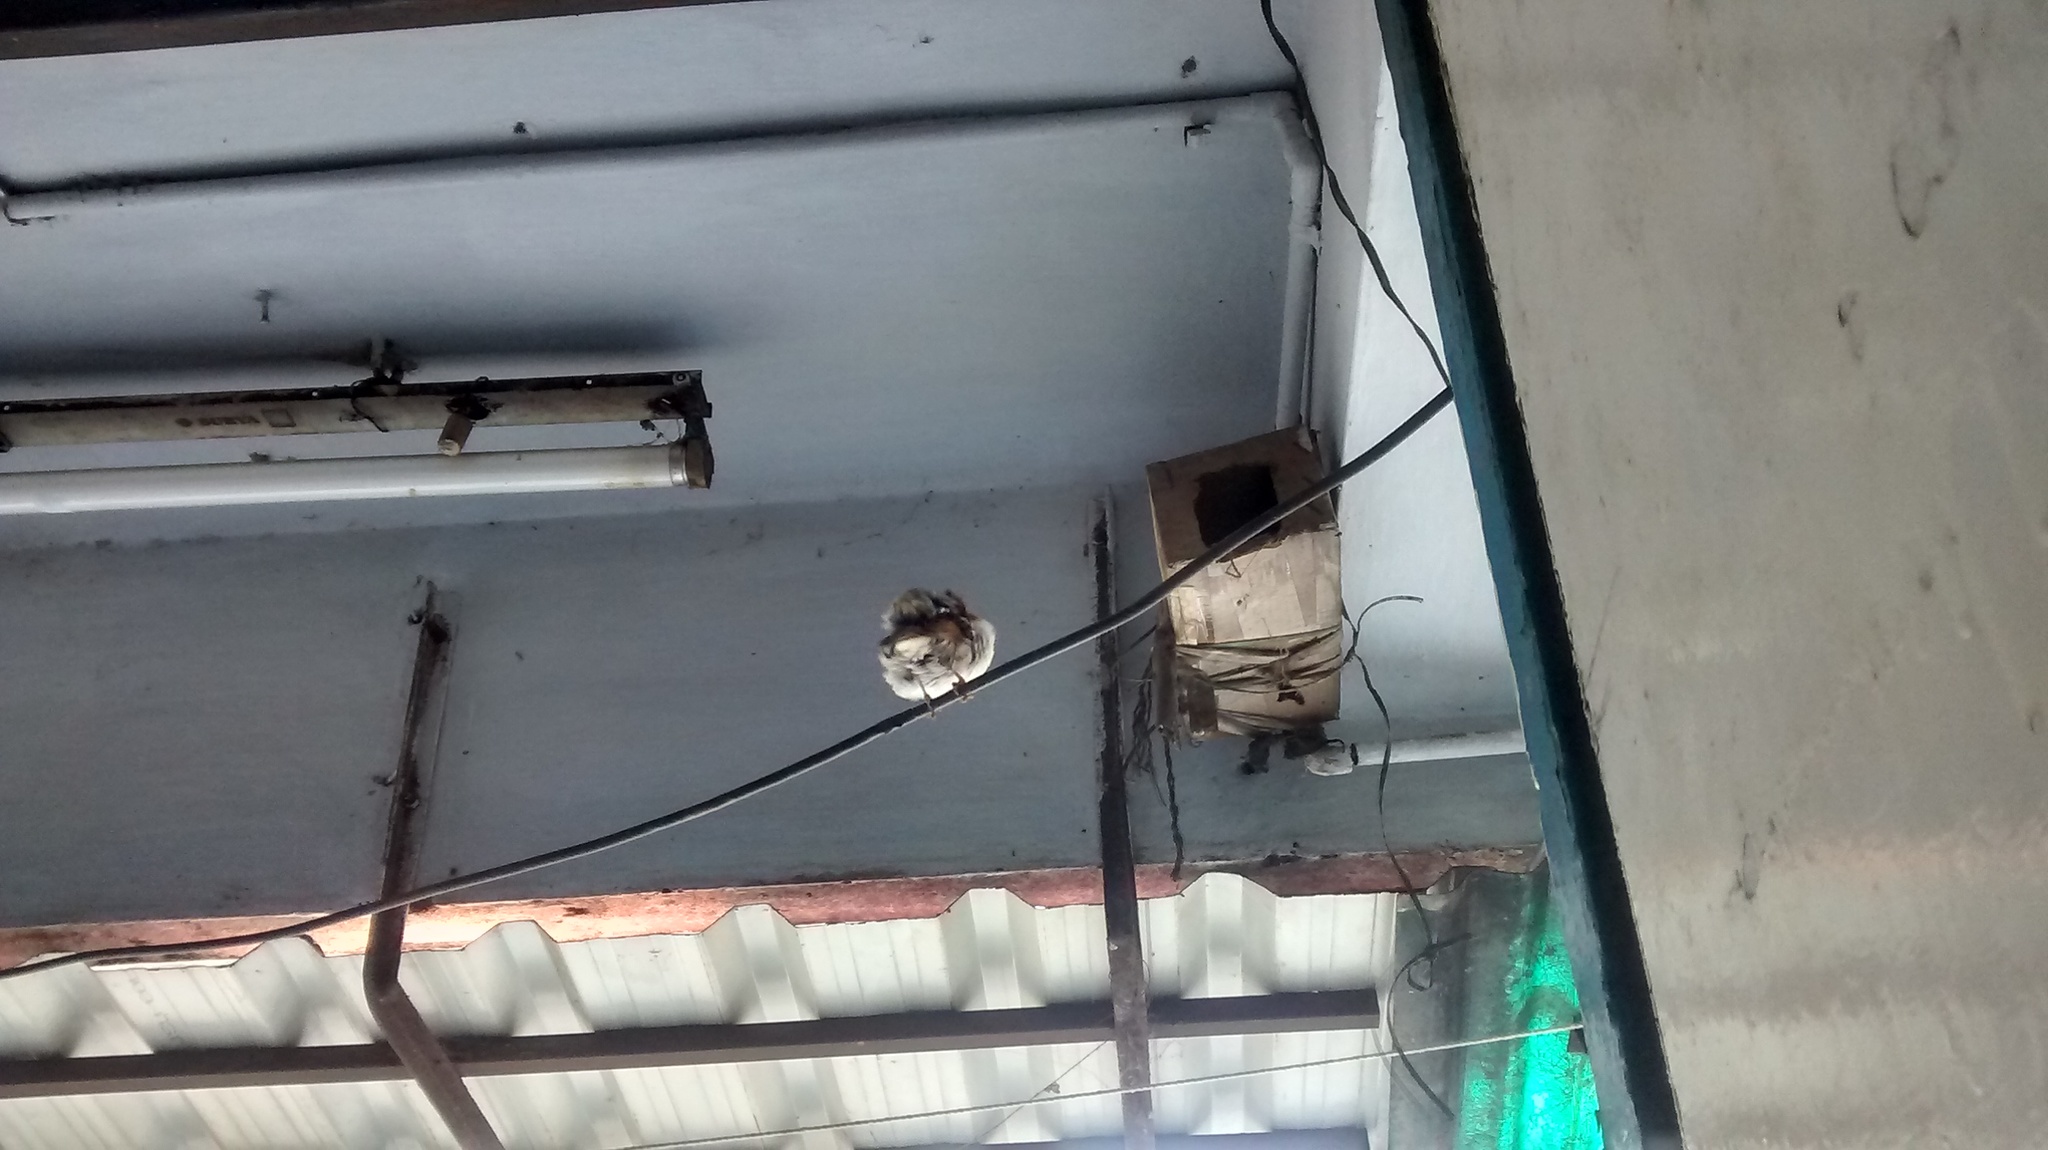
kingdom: Animalia
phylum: Chordata
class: Aves
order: Passeriformes
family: Passeridae
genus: Passer
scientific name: Passer domesticus
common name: House sparrow
